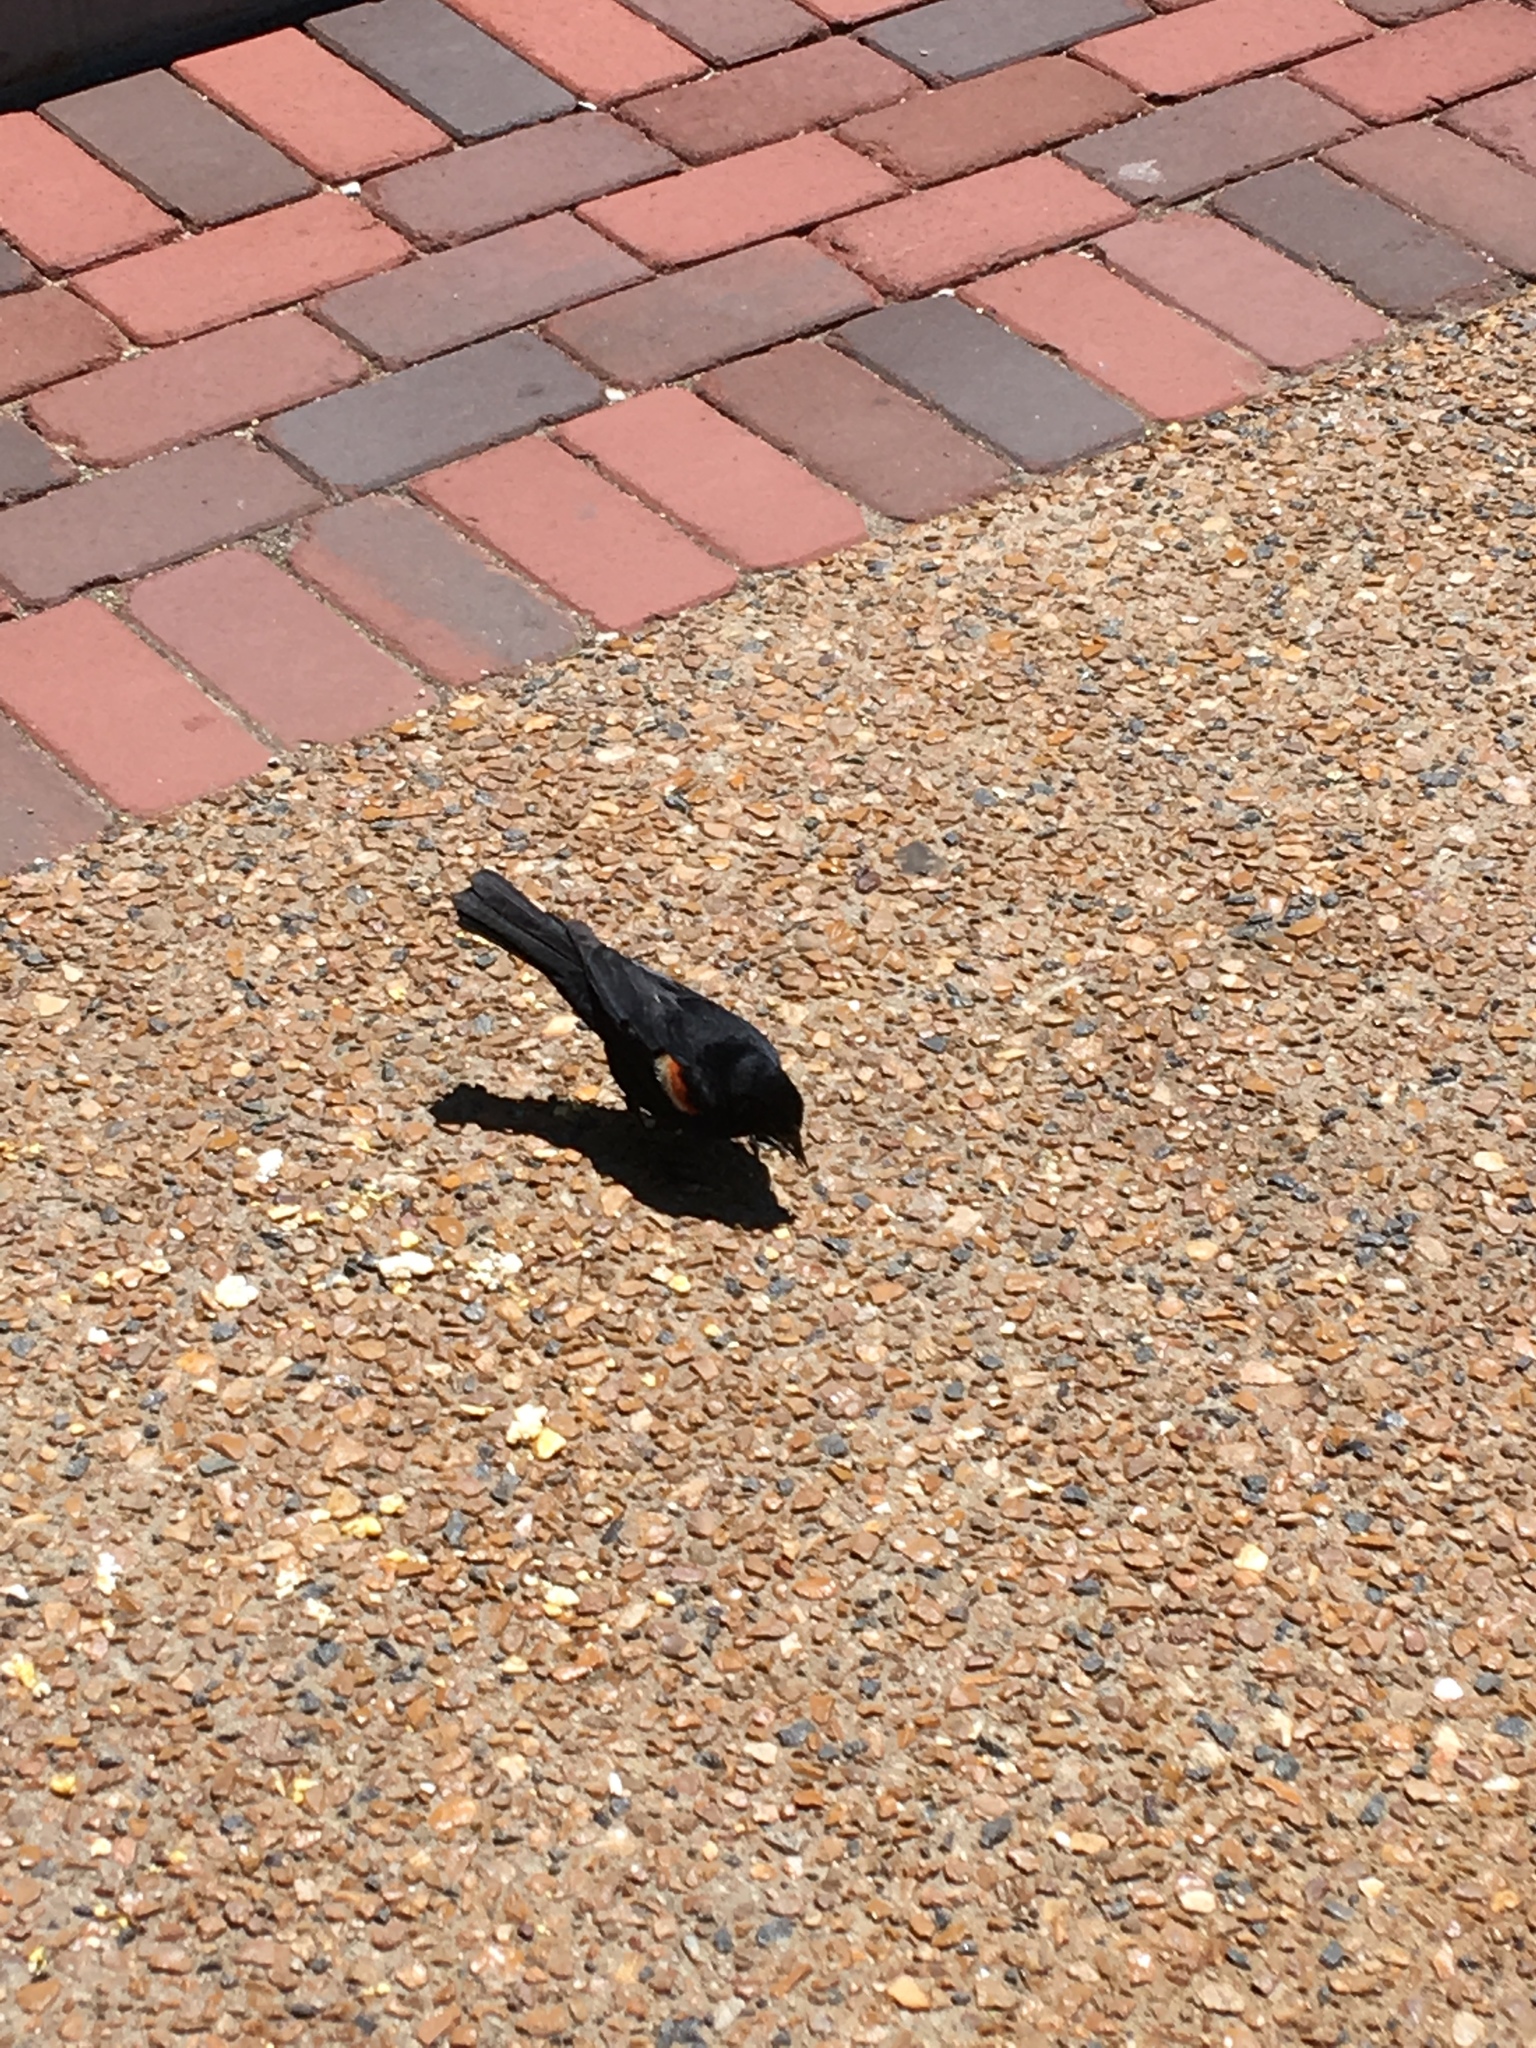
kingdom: Animalia
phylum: Chordata
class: Aves
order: Passeriformes
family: Icteridae
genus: Agelaius
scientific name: Agelaius phoeniceus
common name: Red-winged blackbird
